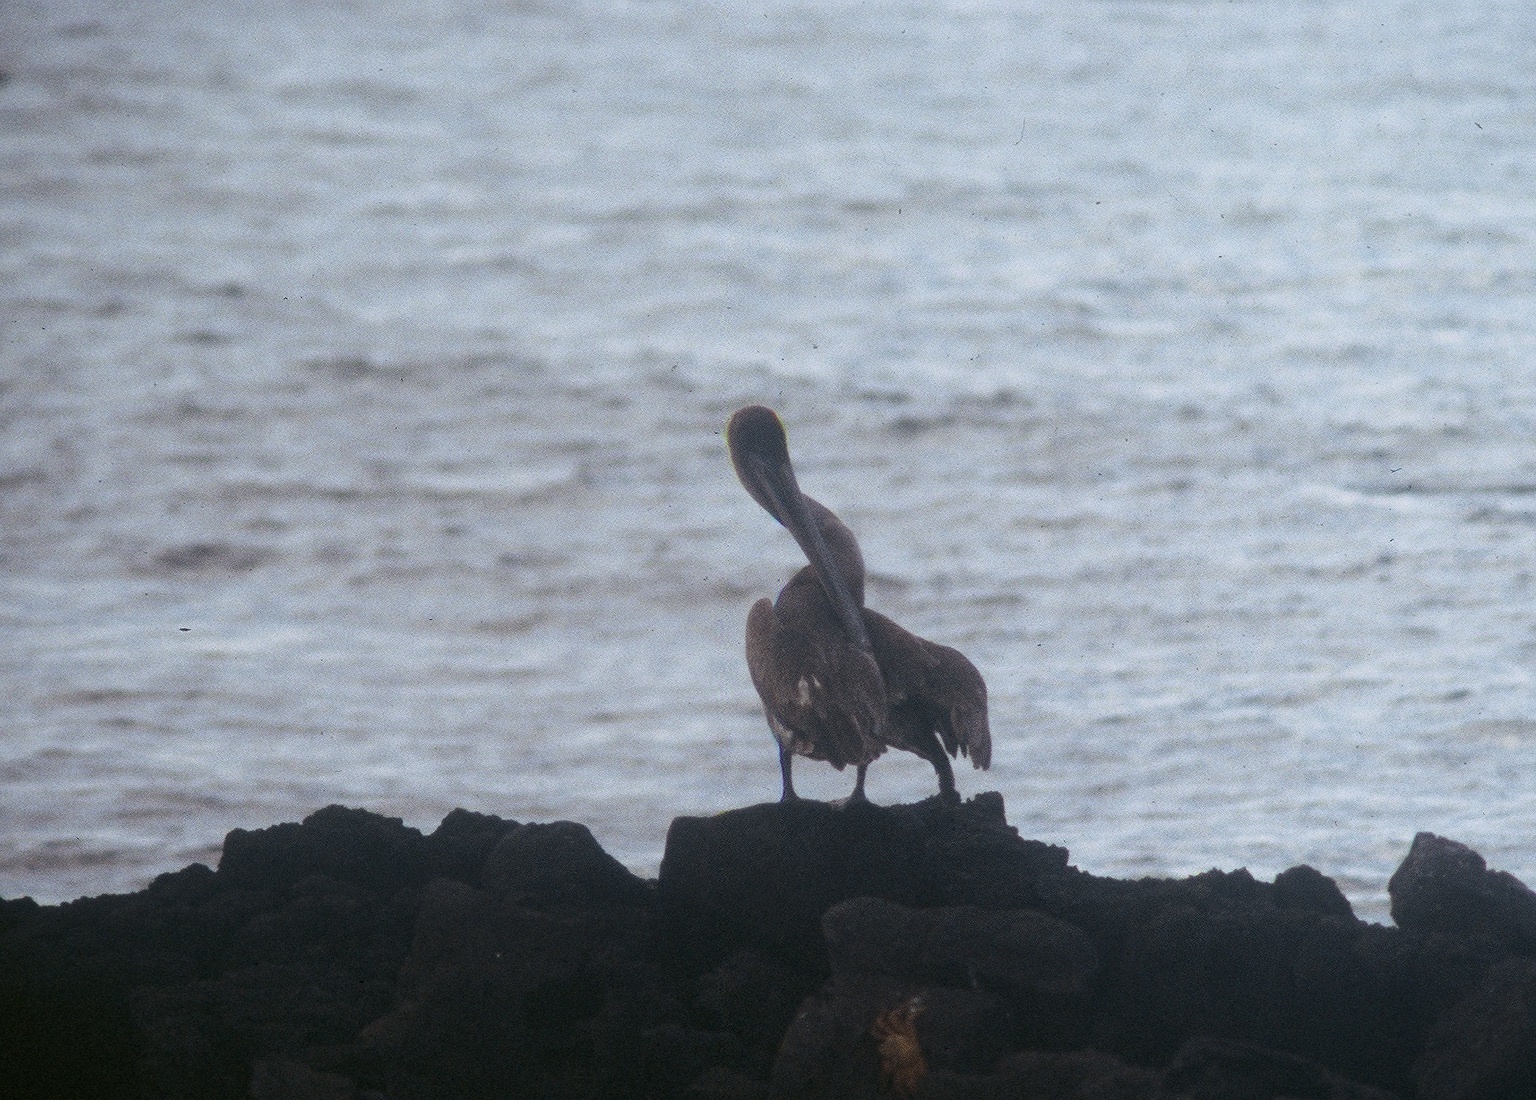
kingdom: Animalia
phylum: Chordata
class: Aves
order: Pelecaniformes
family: Pelecanidae
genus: Pelecanus
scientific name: Pelecanus occidentalis
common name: Brown pelican
